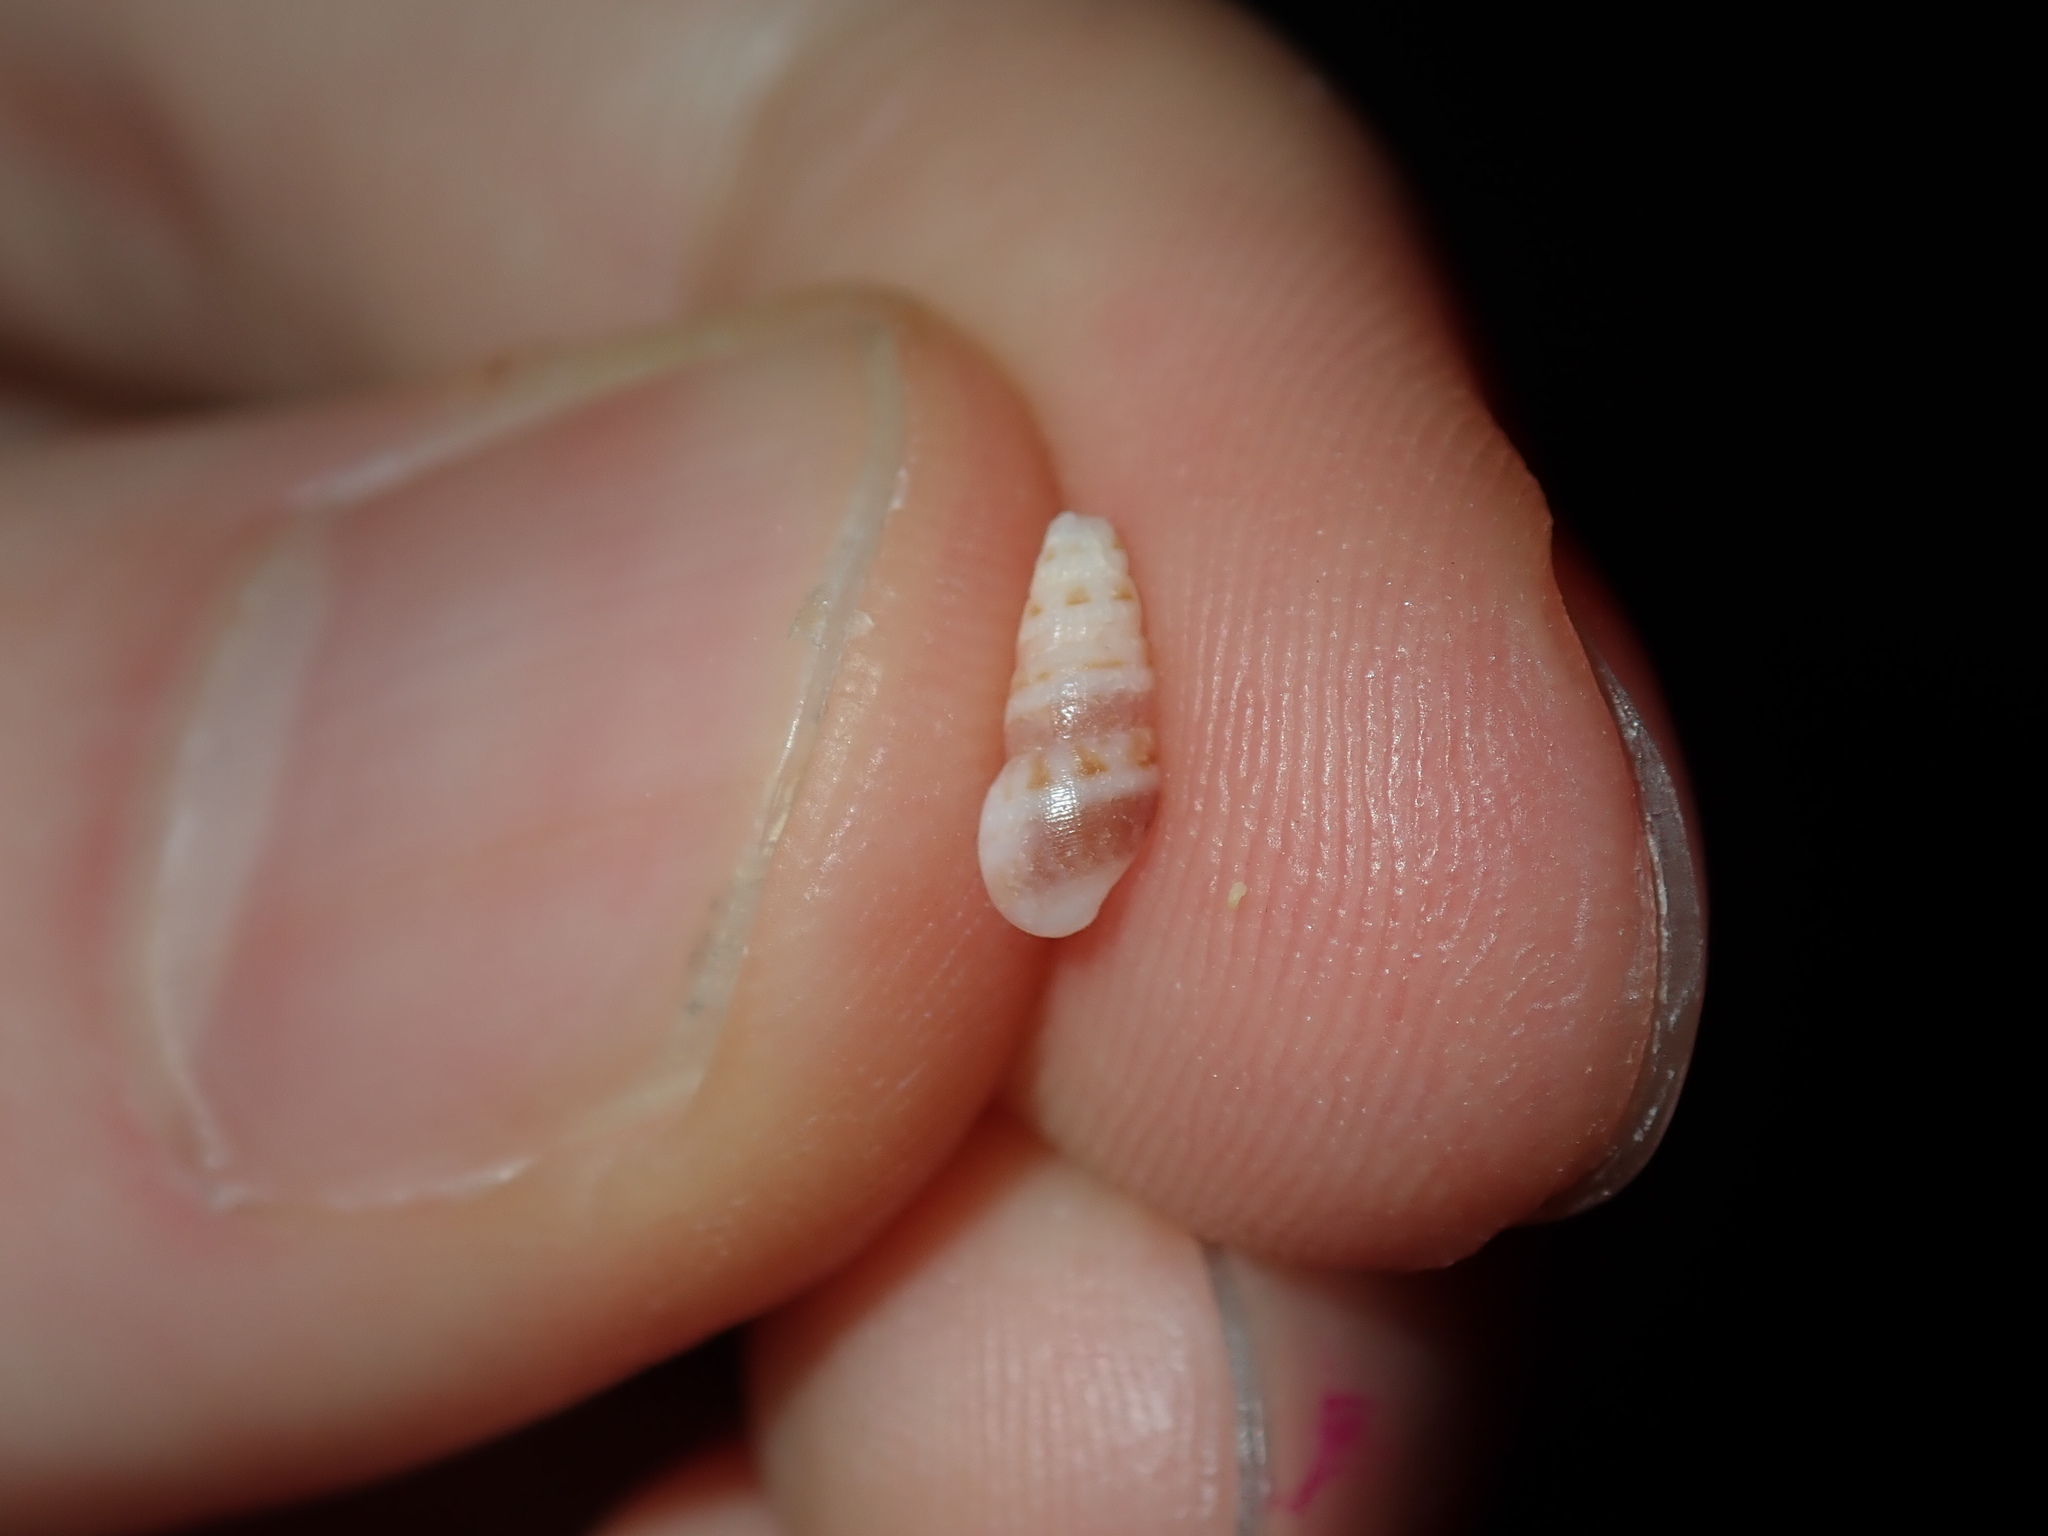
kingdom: Animalia
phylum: Mollusca
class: Gastropoda
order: Littorinimorpha
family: Rissoinidae
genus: Rissoina
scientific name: Rissoina fasciata
